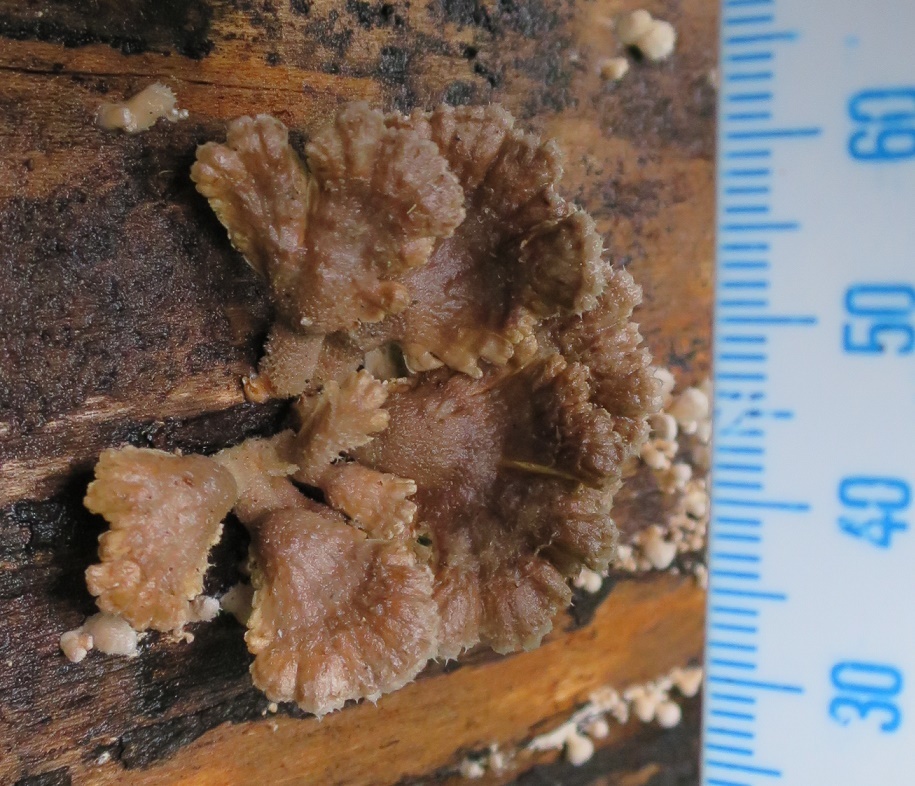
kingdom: Fungi
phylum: Basidiomycota
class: Agaricomycetes
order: Agaricales
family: Schizophyllaceae
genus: Schizophyllum
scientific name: Schizophyllum commune
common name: Common porecrust
